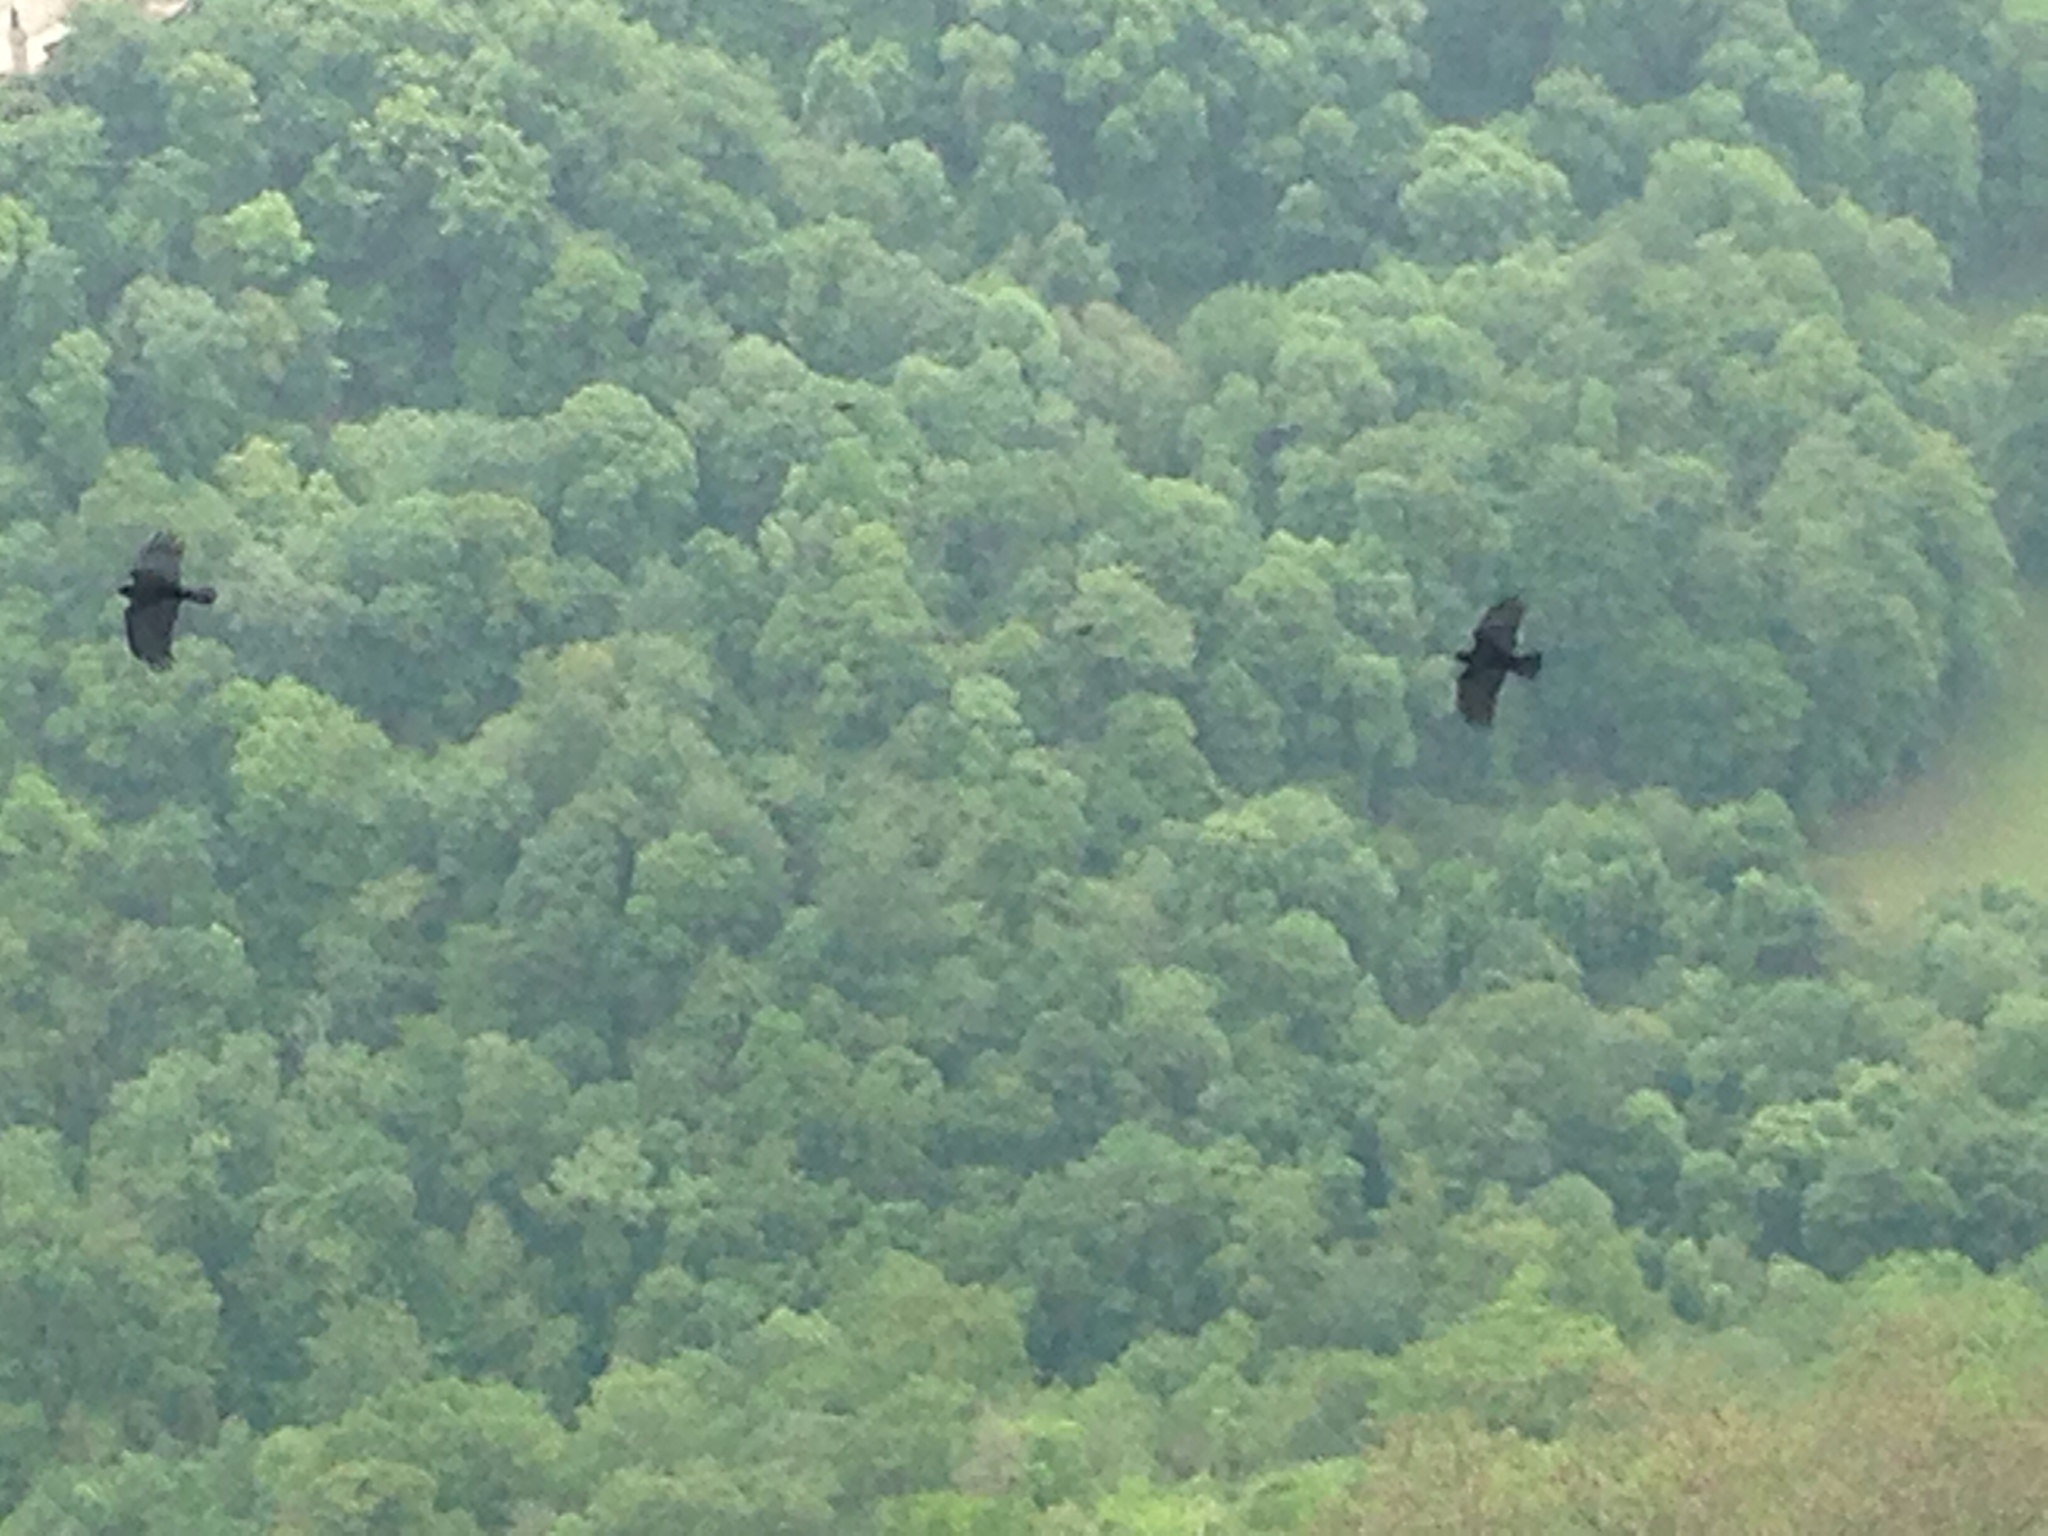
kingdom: Animalia
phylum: Chordata
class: Aves
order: Passeriformes
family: Corvidae
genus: Pyrrhocorax
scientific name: Pyrrhocorax pyrrhocorax
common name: Red-billed chough
